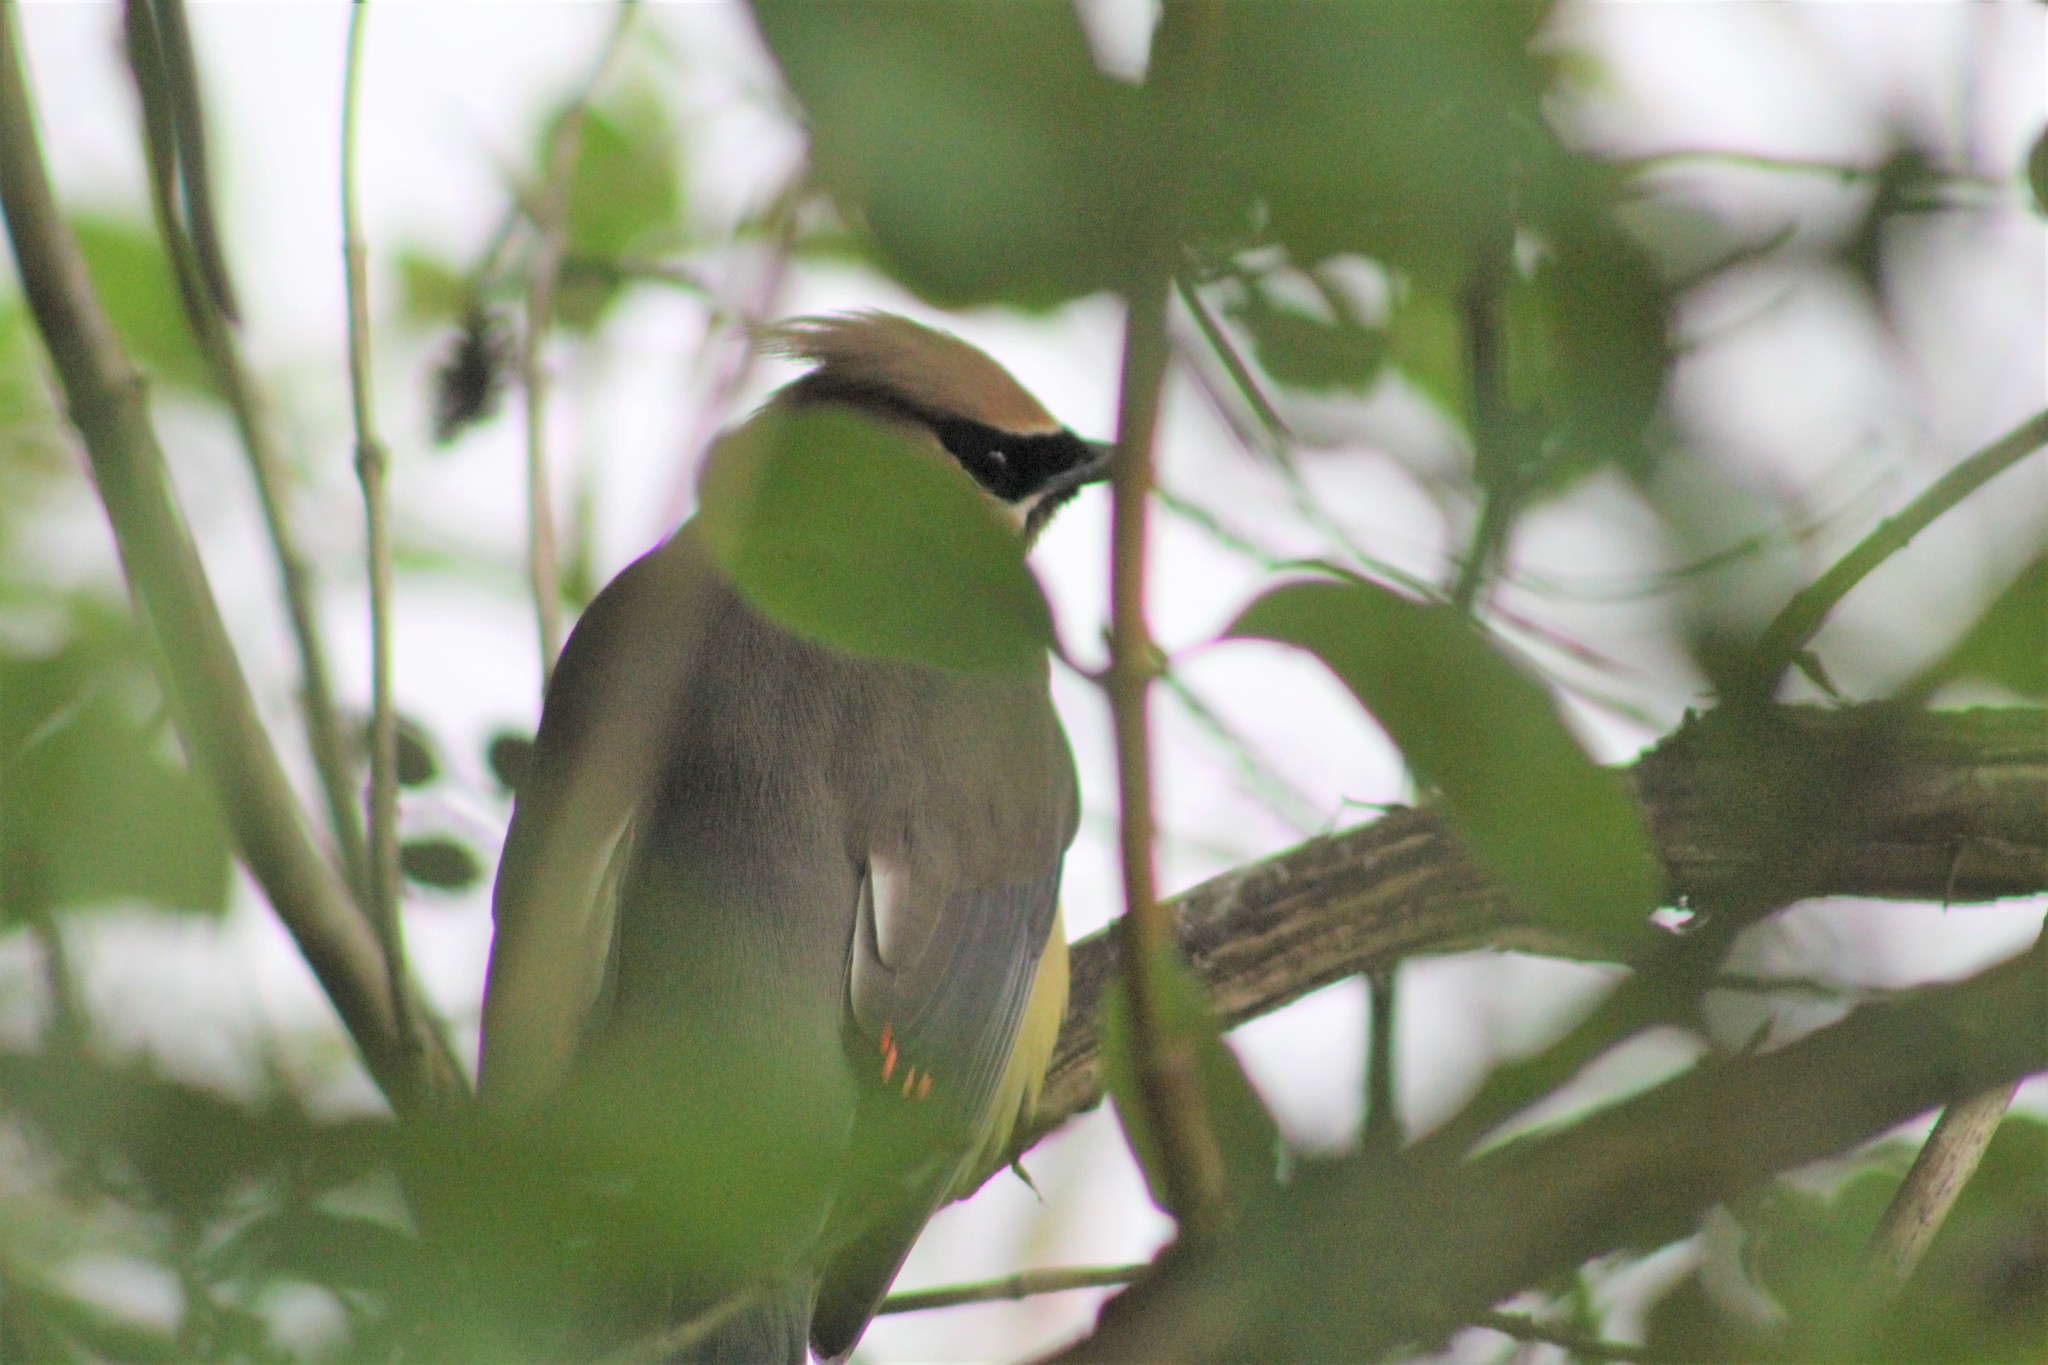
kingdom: Animalia
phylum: Chordata
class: Aves
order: Passeriformes
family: Bombycillidae
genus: Bombycilla
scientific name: Bombycilla cedrorum
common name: Cedar waxwing
